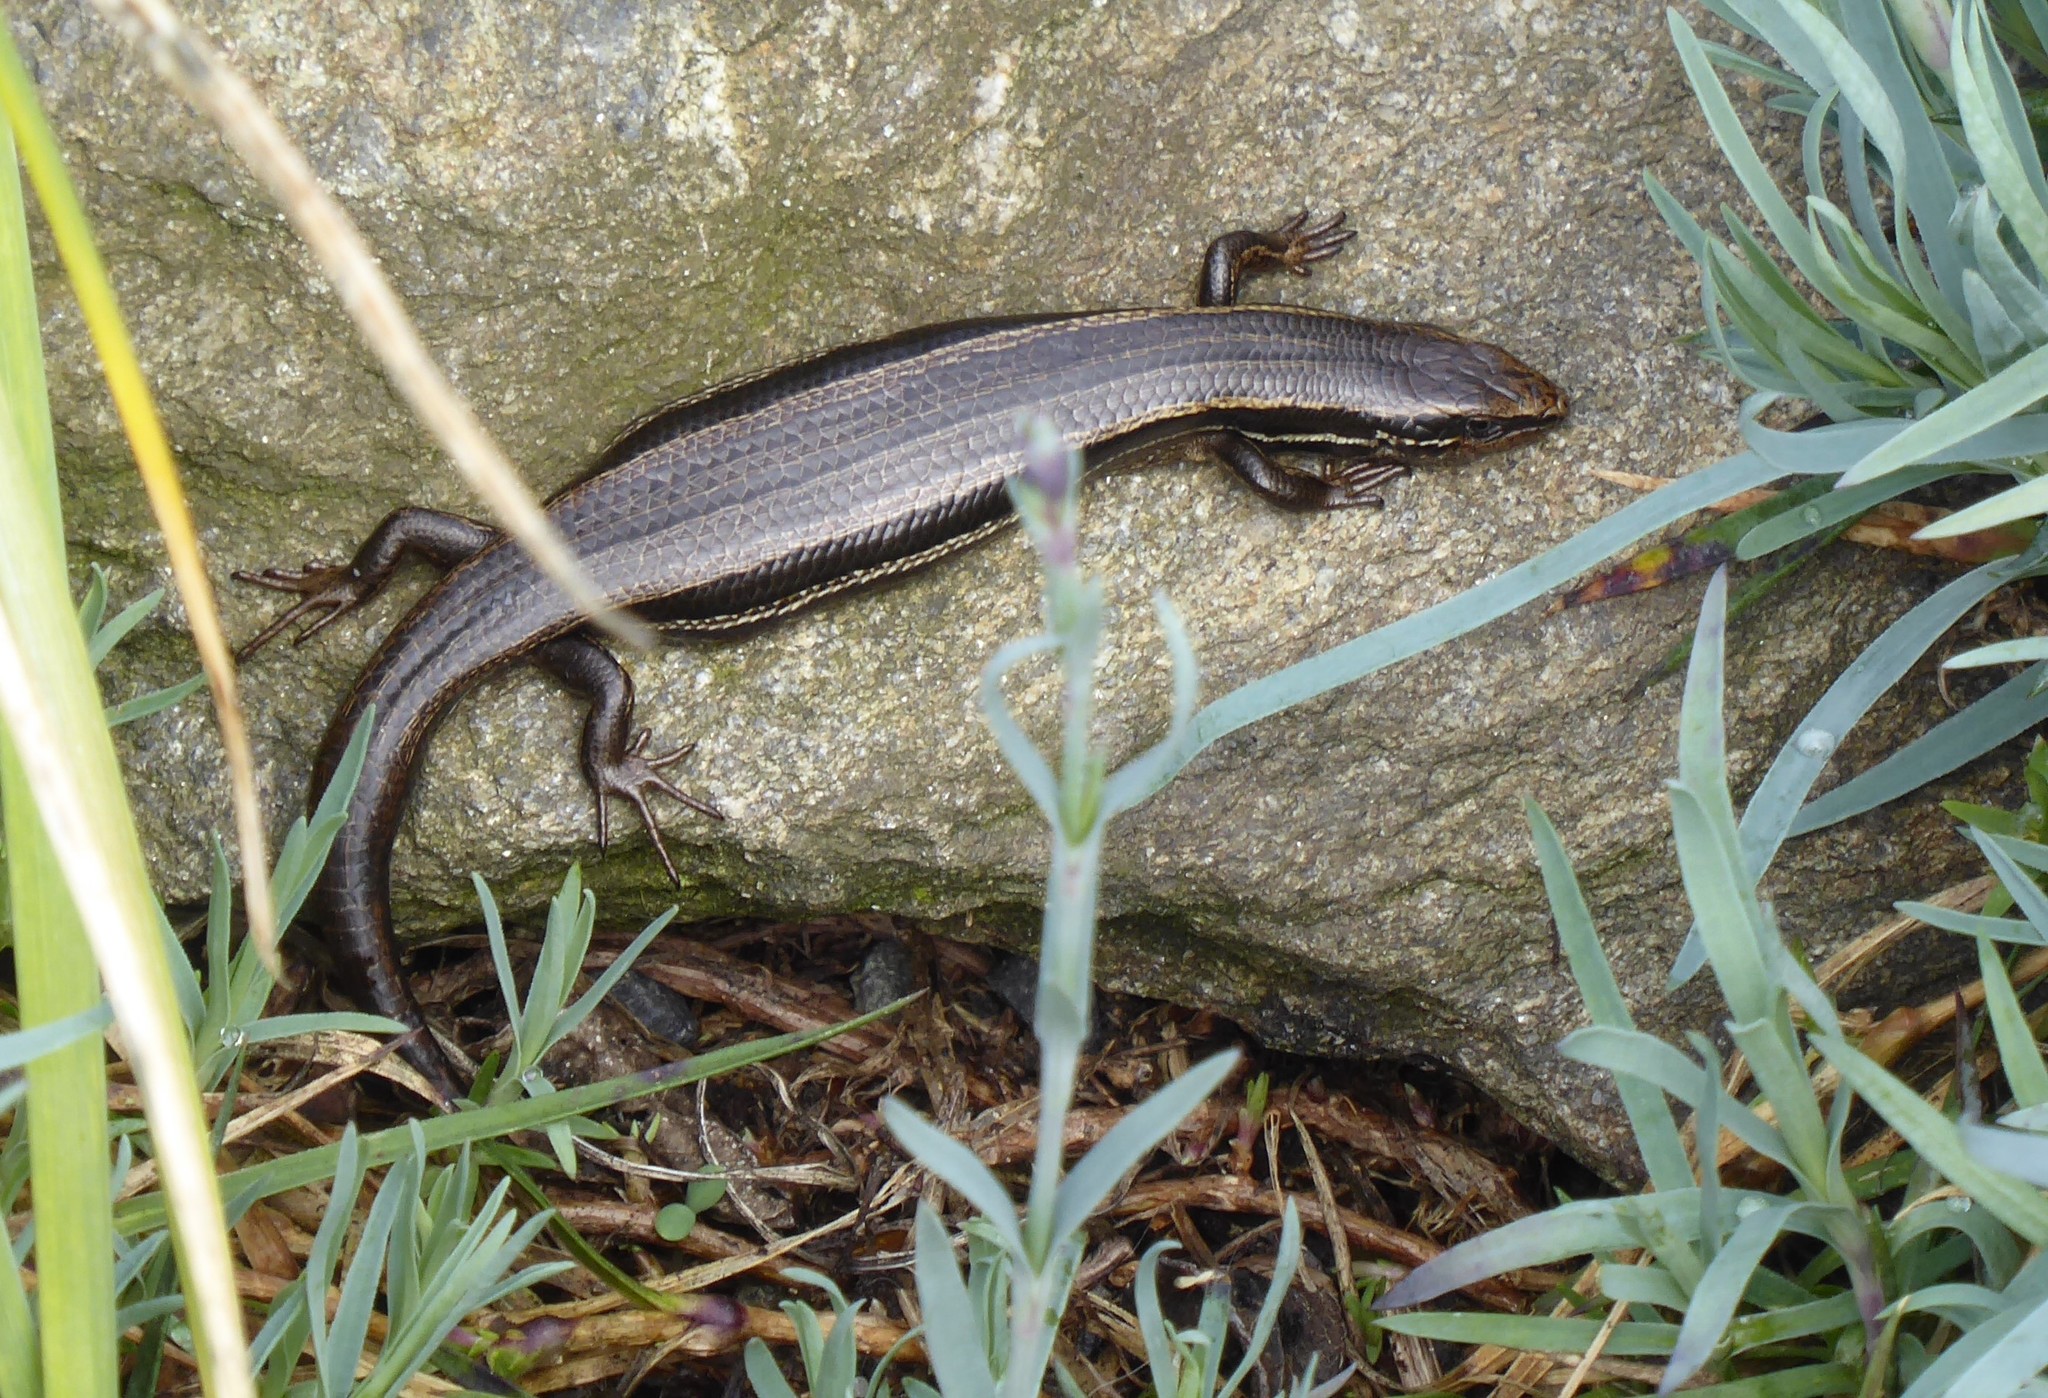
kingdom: Animalia
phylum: Chordata
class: Squamata
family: Scincidae
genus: Oligosoma
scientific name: Oligosoma polychroma
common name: Common new zealand skink
